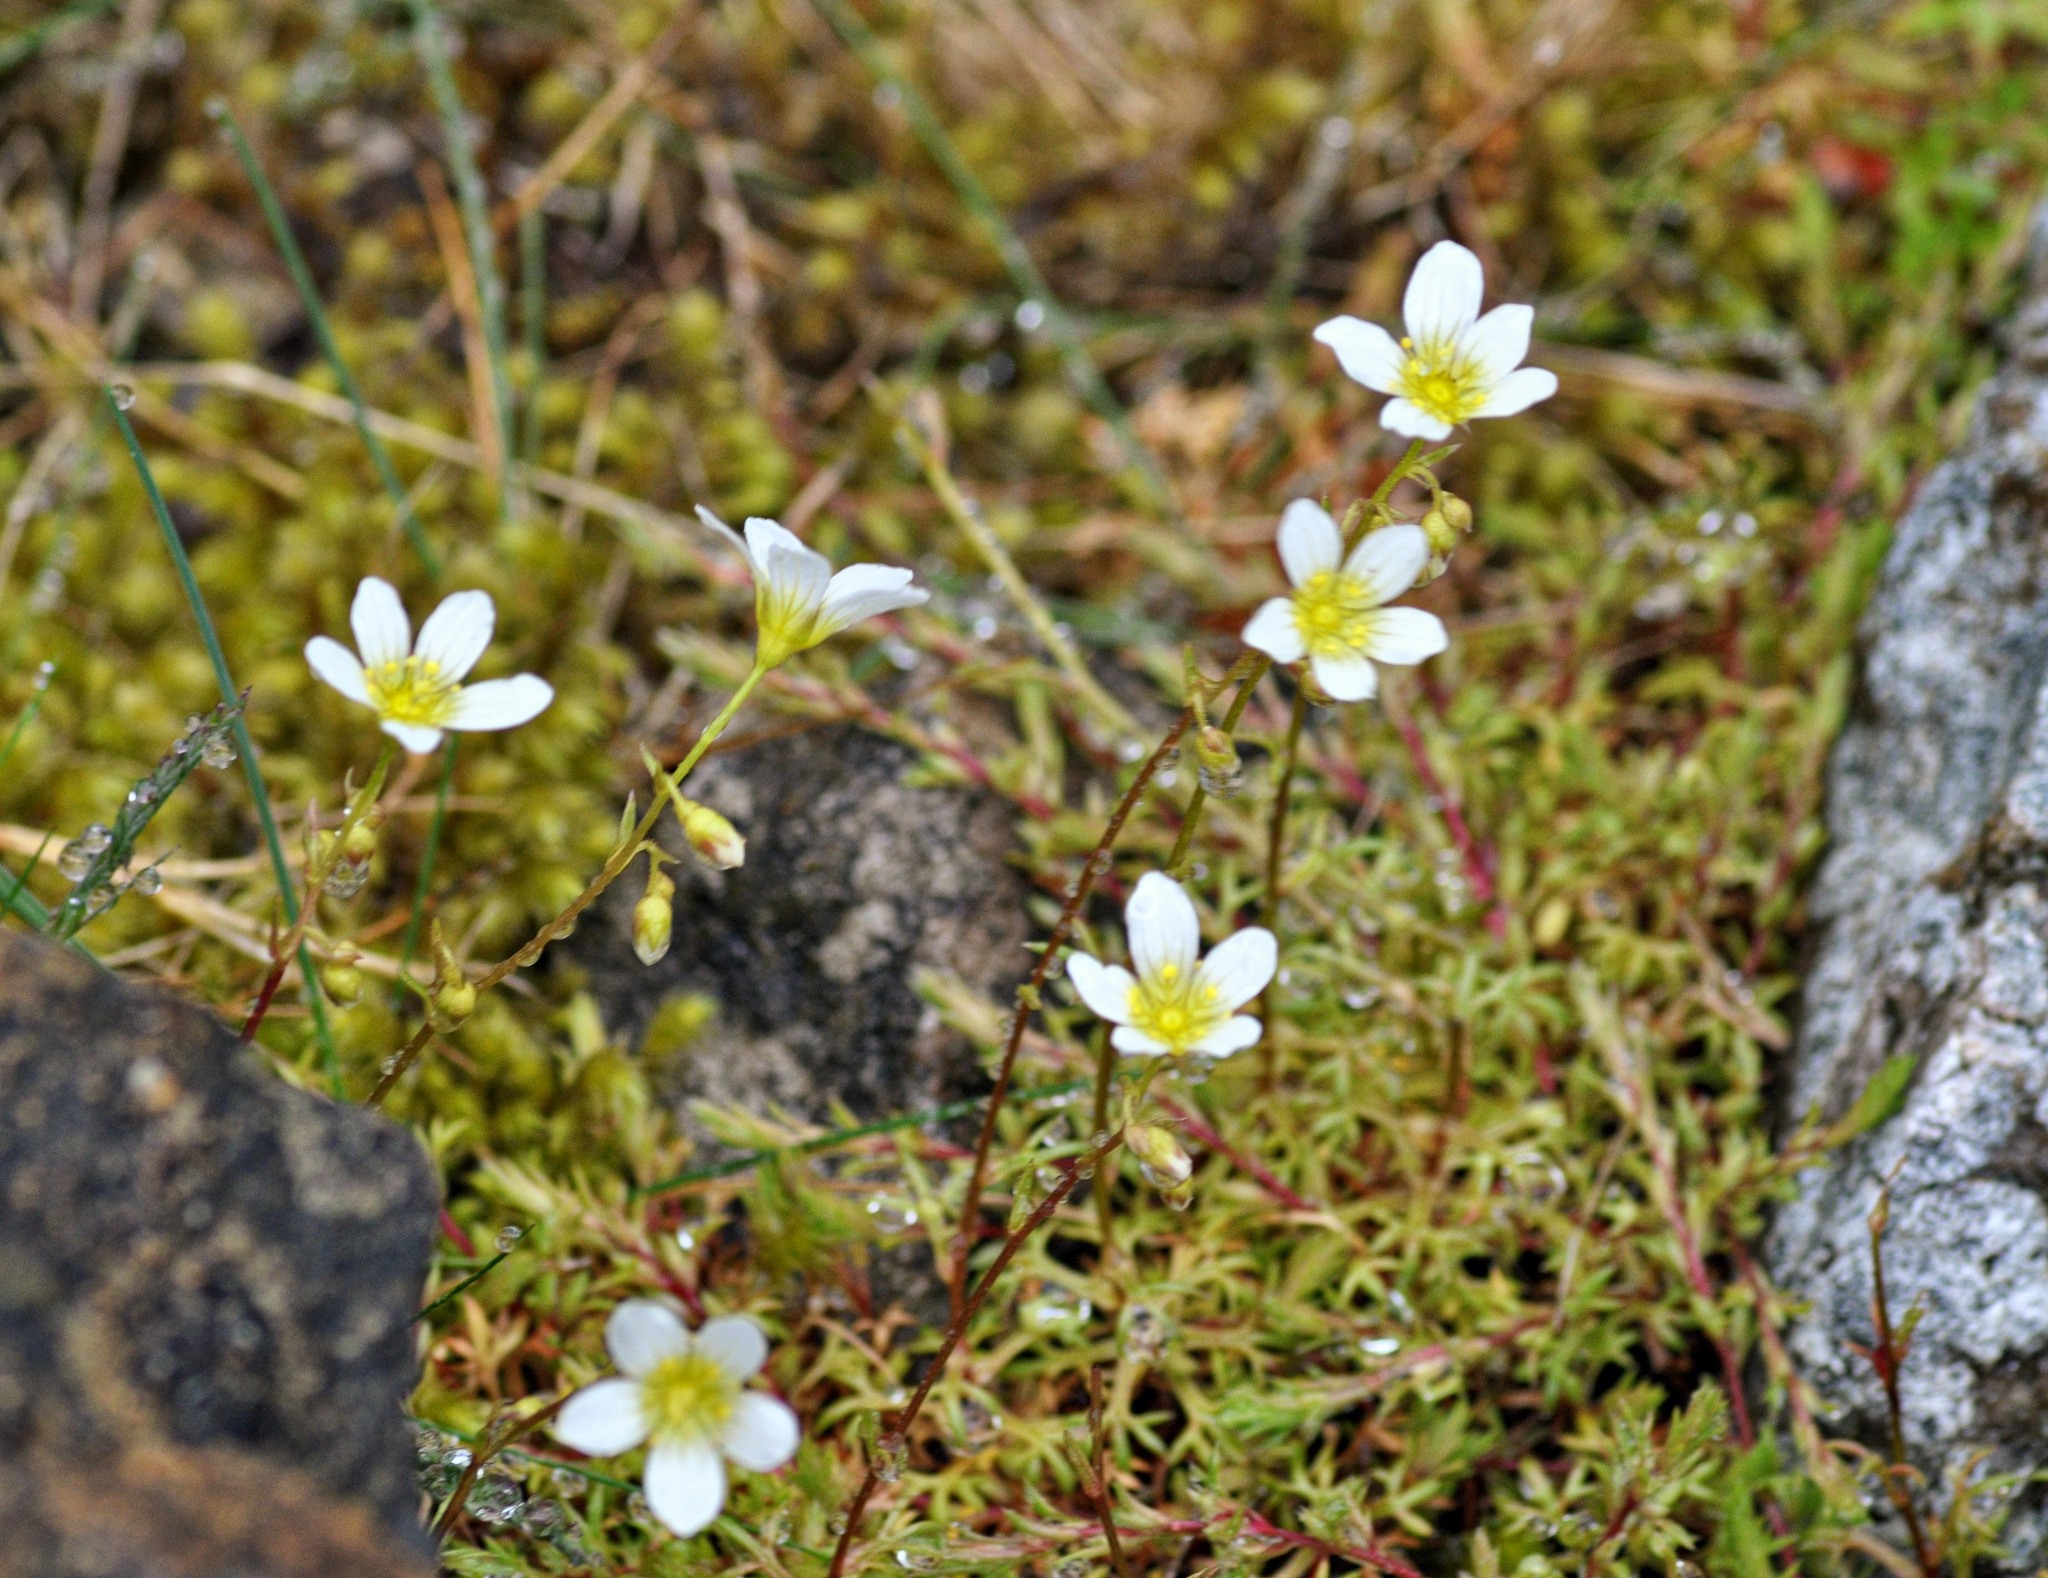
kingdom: Plantae
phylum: Tracheophyta
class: Magnoliopsida
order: Saxifragales
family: Saxifragaceae
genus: Saxifraga
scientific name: Saxifraga hypnoides
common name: Mossy saxifrage
